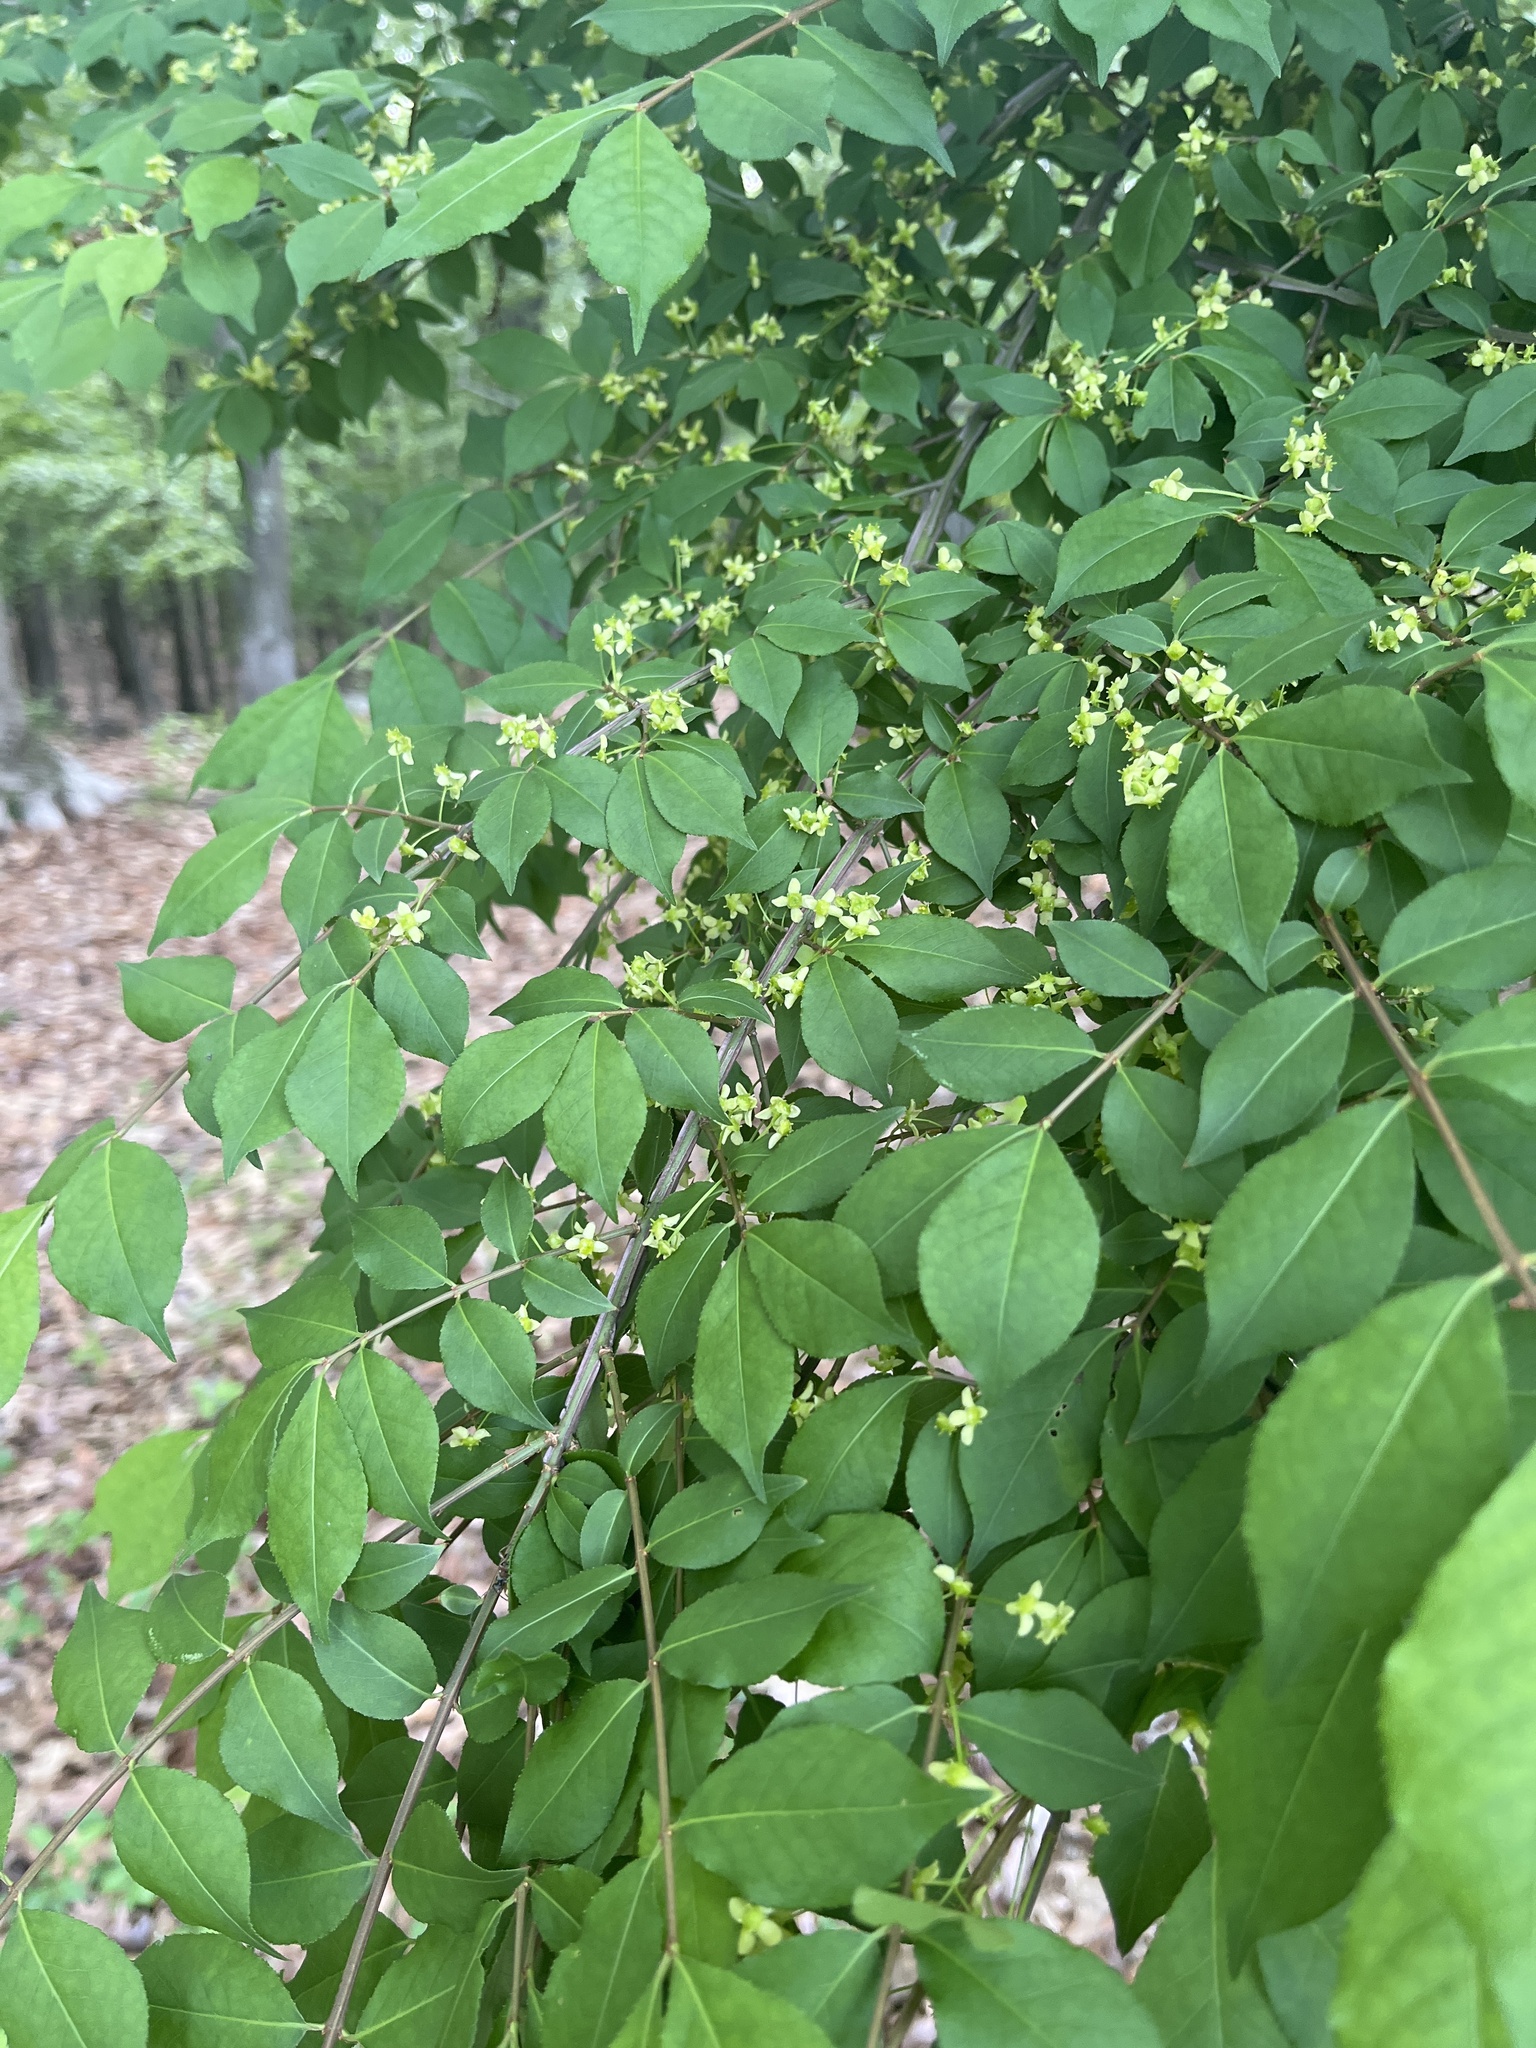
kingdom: Plantae
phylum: Tracheophyta
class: Magnoliopsida
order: Celastrales
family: Celastraceae
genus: Euonymus
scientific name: Euonymus alatus
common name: Winged euonymus
